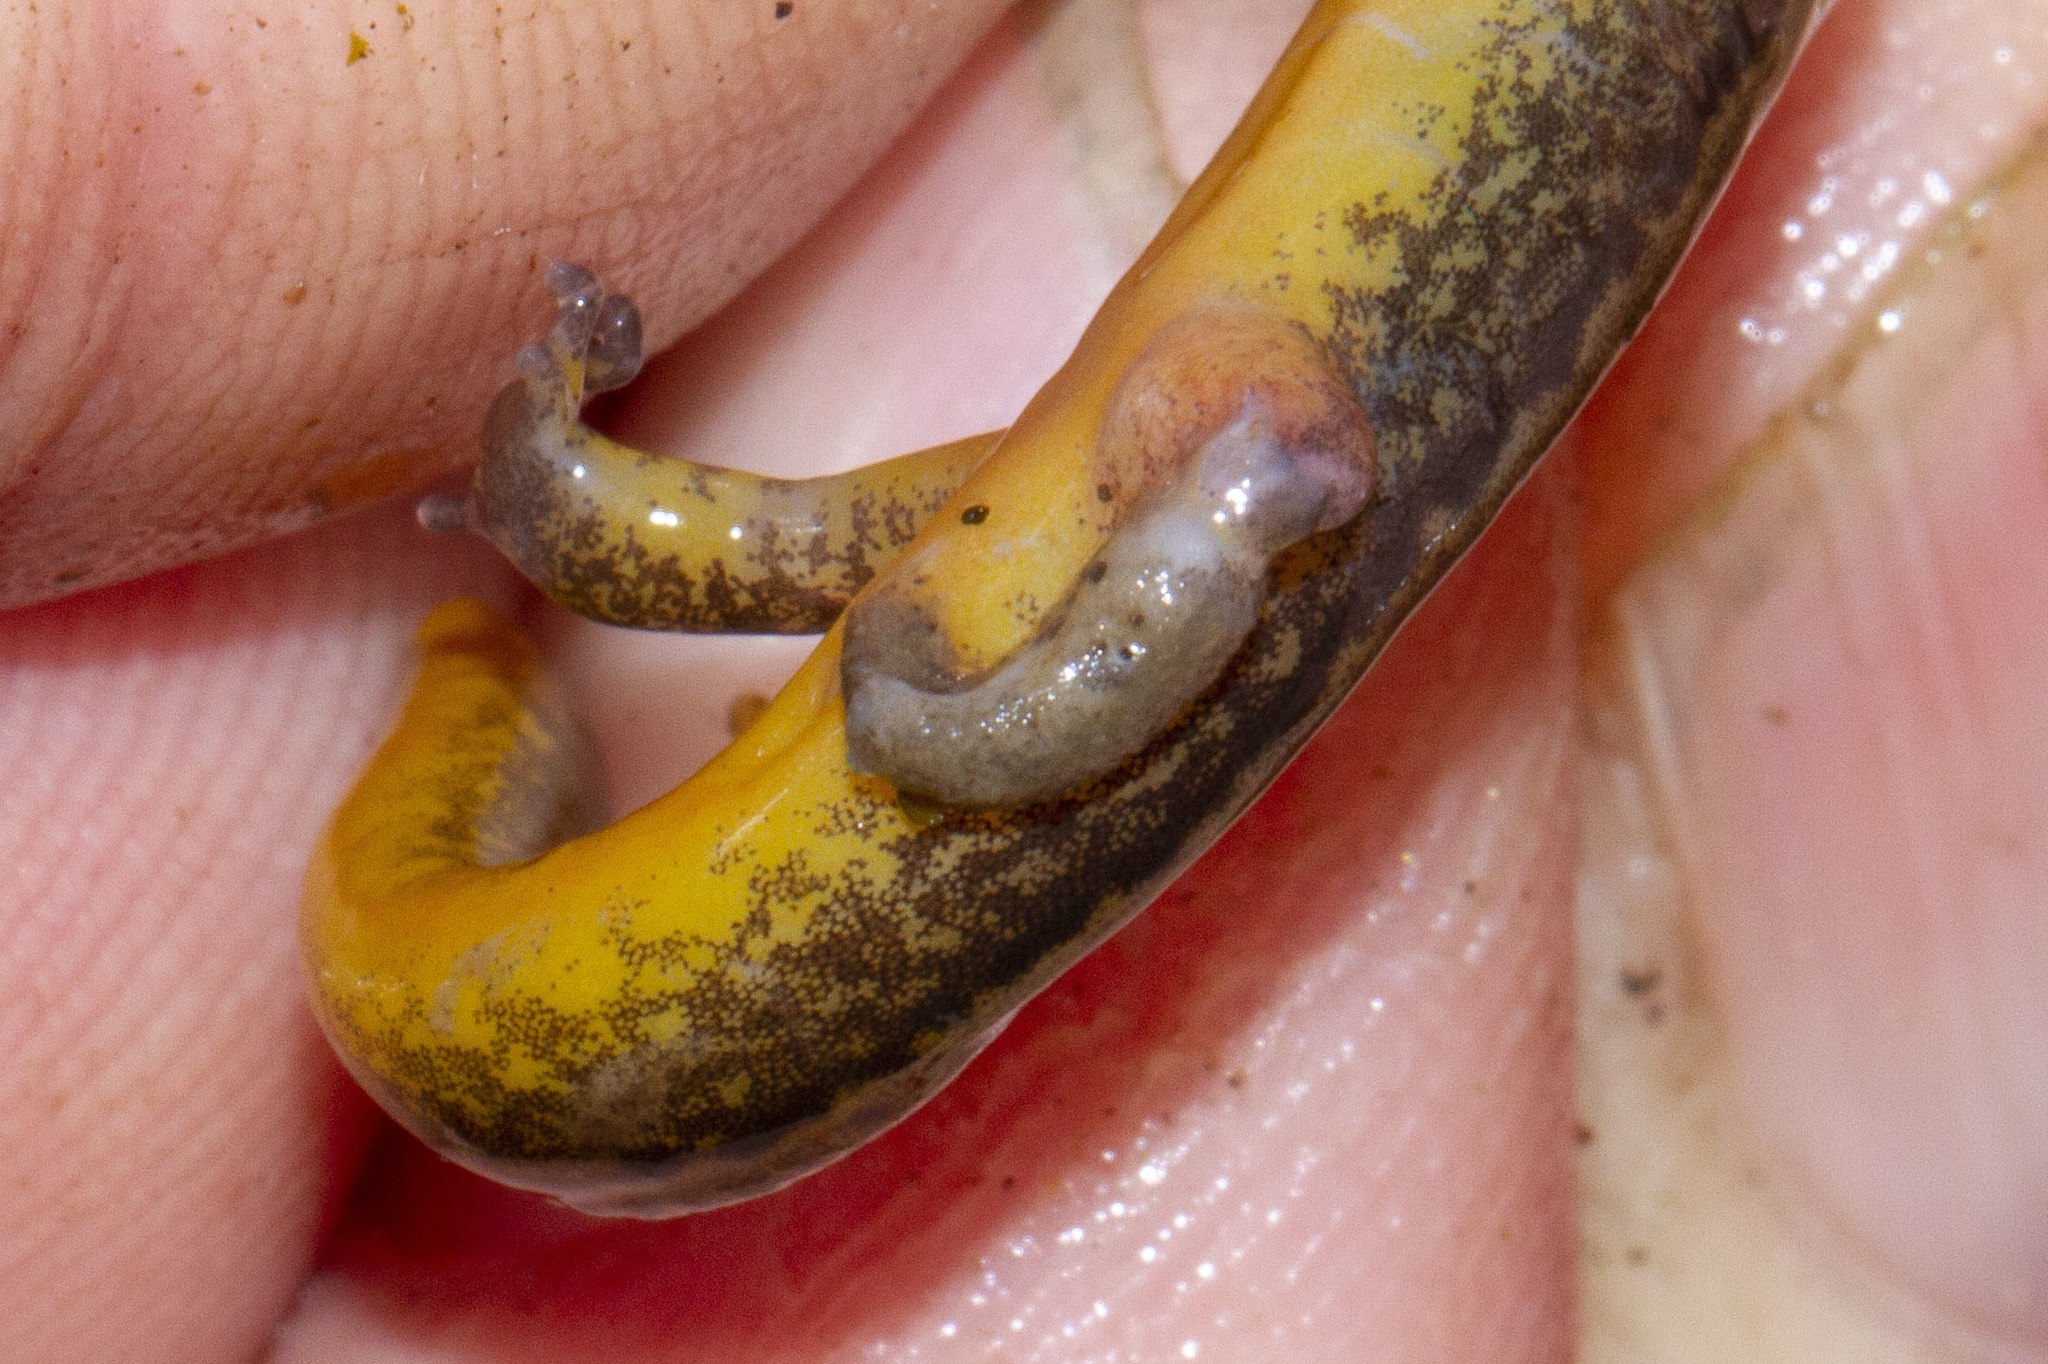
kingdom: Animalia
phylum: Chordata
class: Amphibia
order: Caudata
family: Plethodontidae
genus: Eurycea
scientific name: Eurycea bislineata
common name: Northern two-lined salamander
